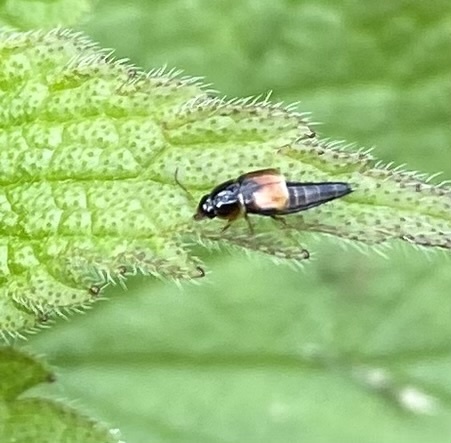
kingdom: Animalia
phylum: Arthropoda
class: Insecta
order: Coleoptera
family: Staphylinidae
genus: Tachyporus
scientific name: Tachyporus hypnorum
